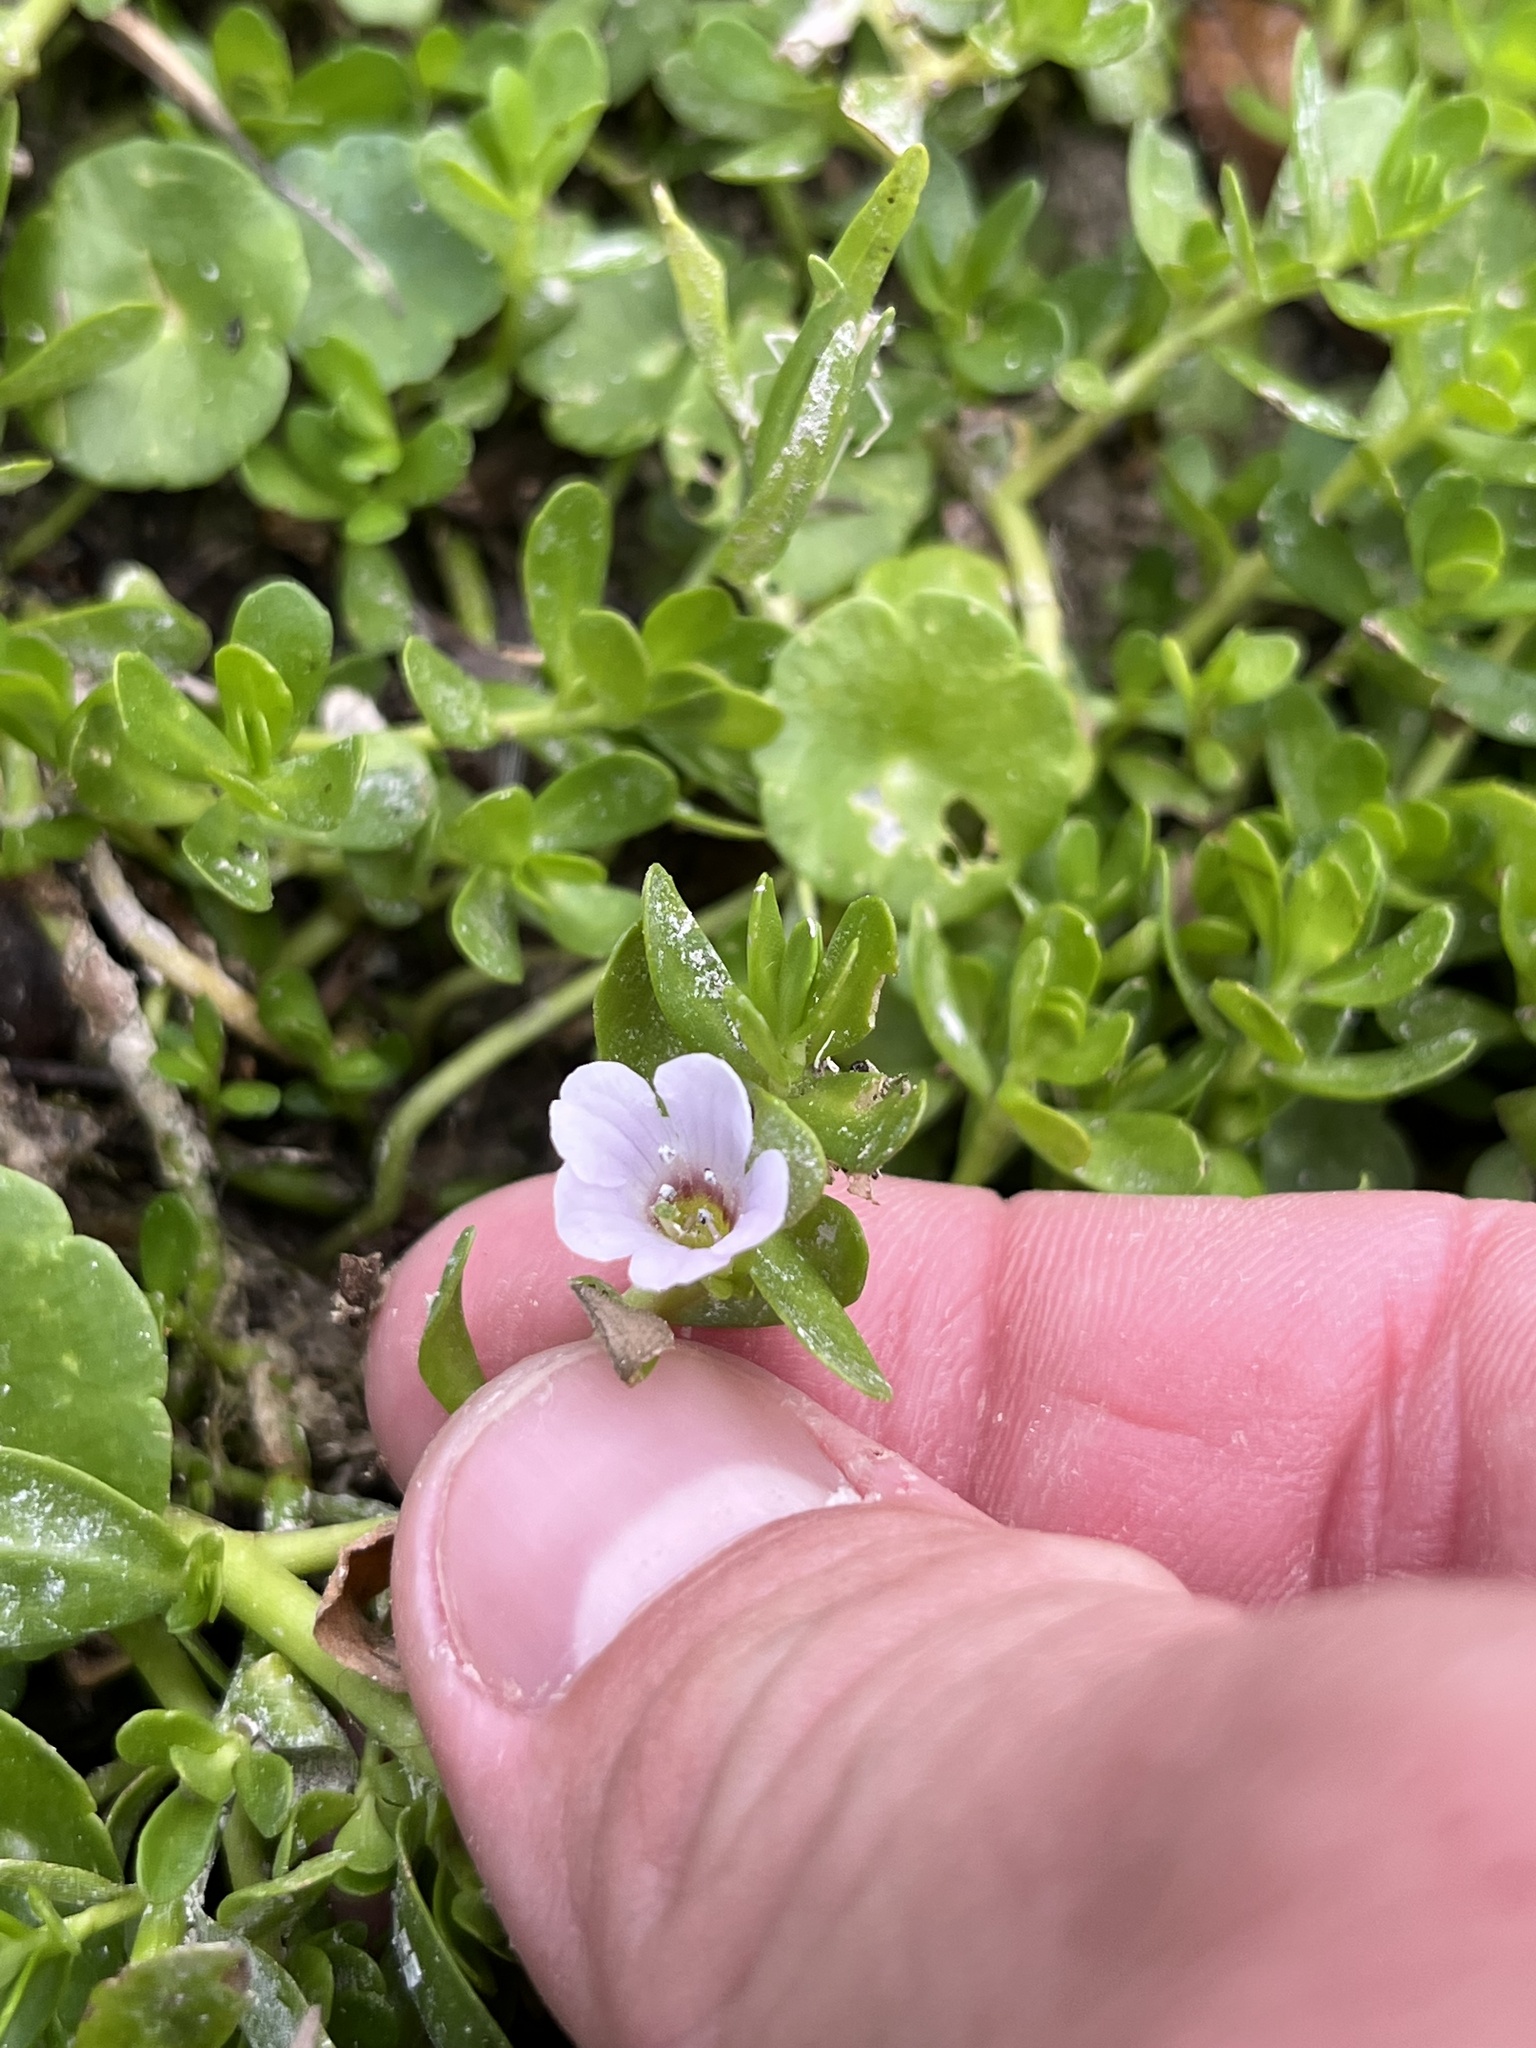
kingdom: Plantae
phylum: Tracheophyta
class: Magnoliopsida
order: Lamiales
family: Plantaginaceae
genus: Bacopa
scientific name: Bacopa monnieri
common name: Indian-pennywort
